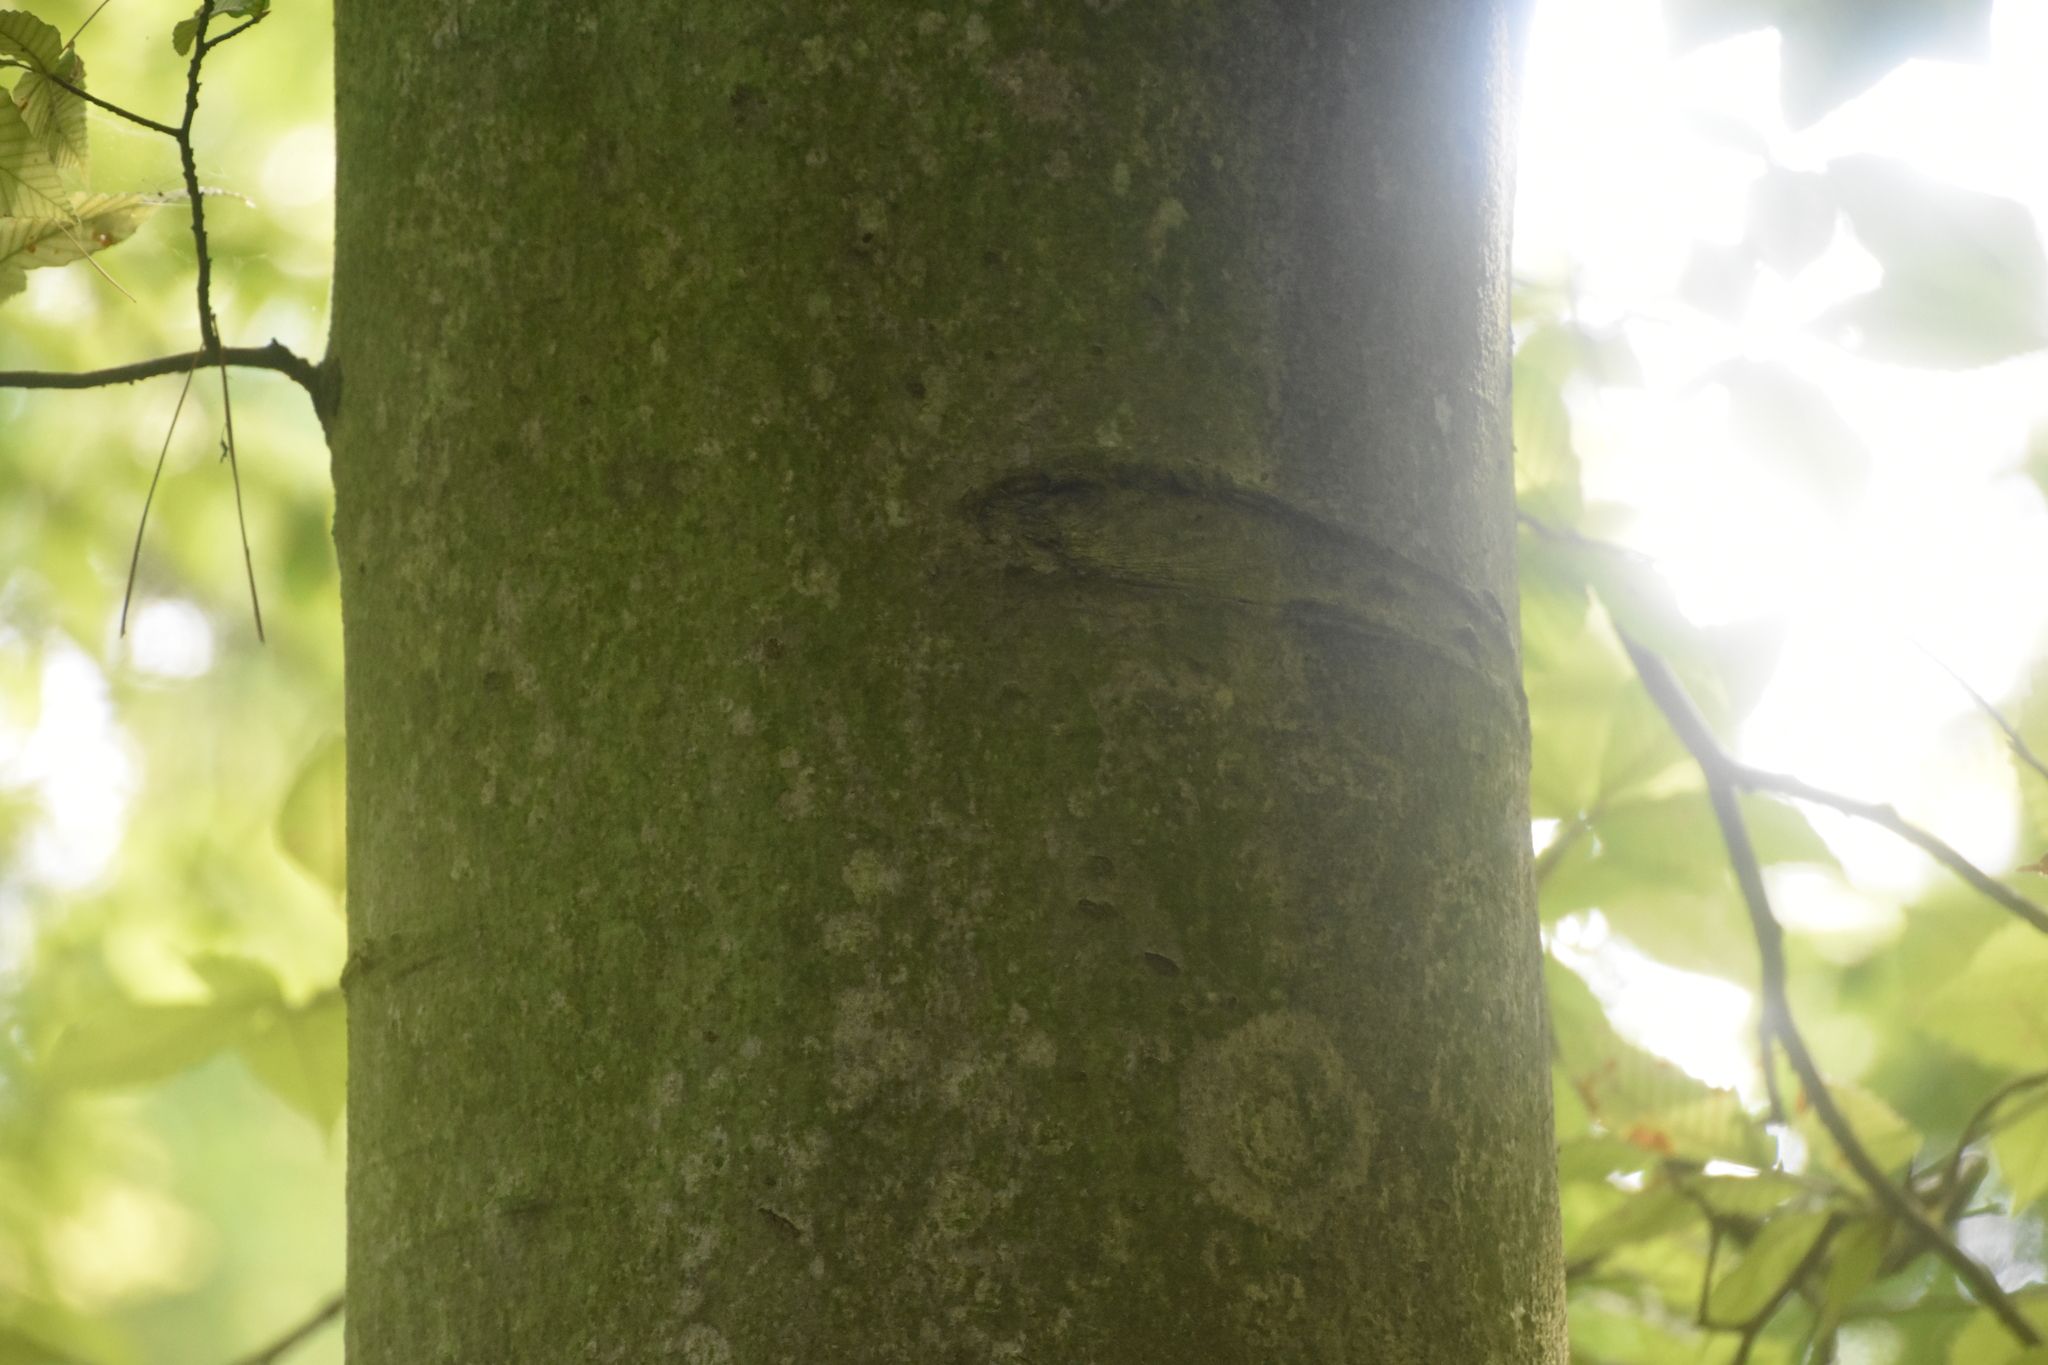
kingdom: Plantae
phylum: Tracheophyta
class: Magnoliopsida
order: Fagales
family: Fagaceae
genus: Fagus
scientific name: Fagus grandifolia
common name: American beech
